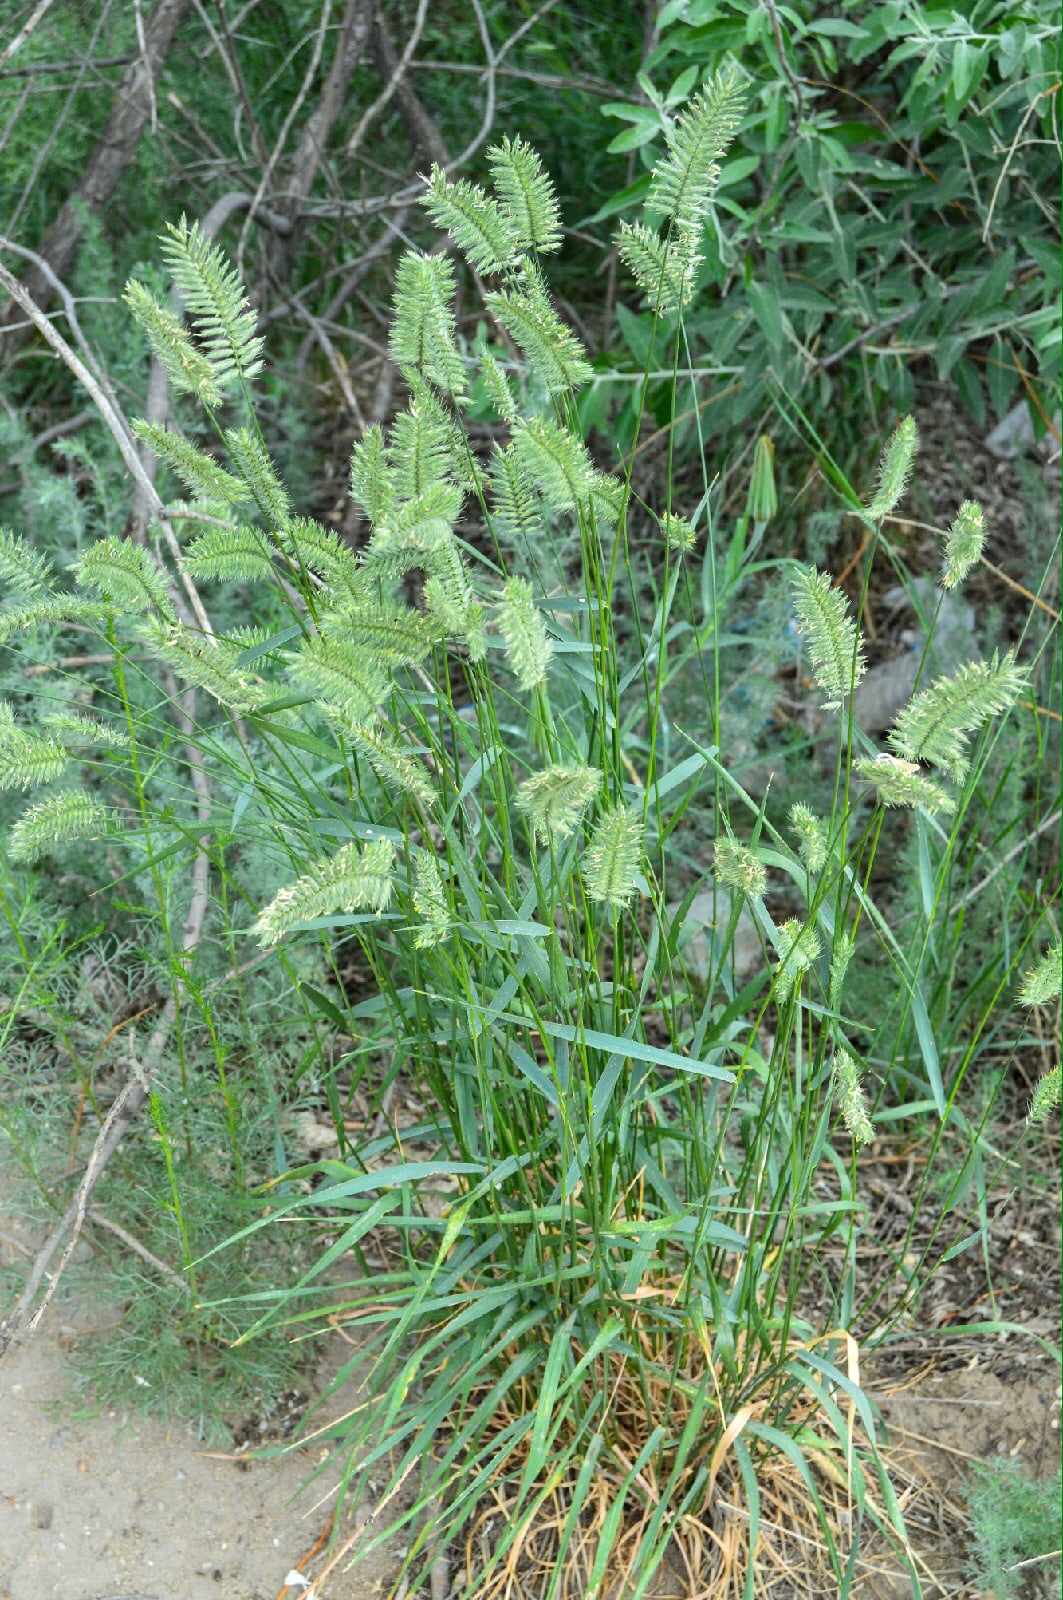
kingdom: Plantae
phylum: Tracheophyta
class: Liliopsida
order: Poales
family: Poaceae
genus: Agropyron
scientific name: Agropyron cristatum
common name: Crested wheatgrass
